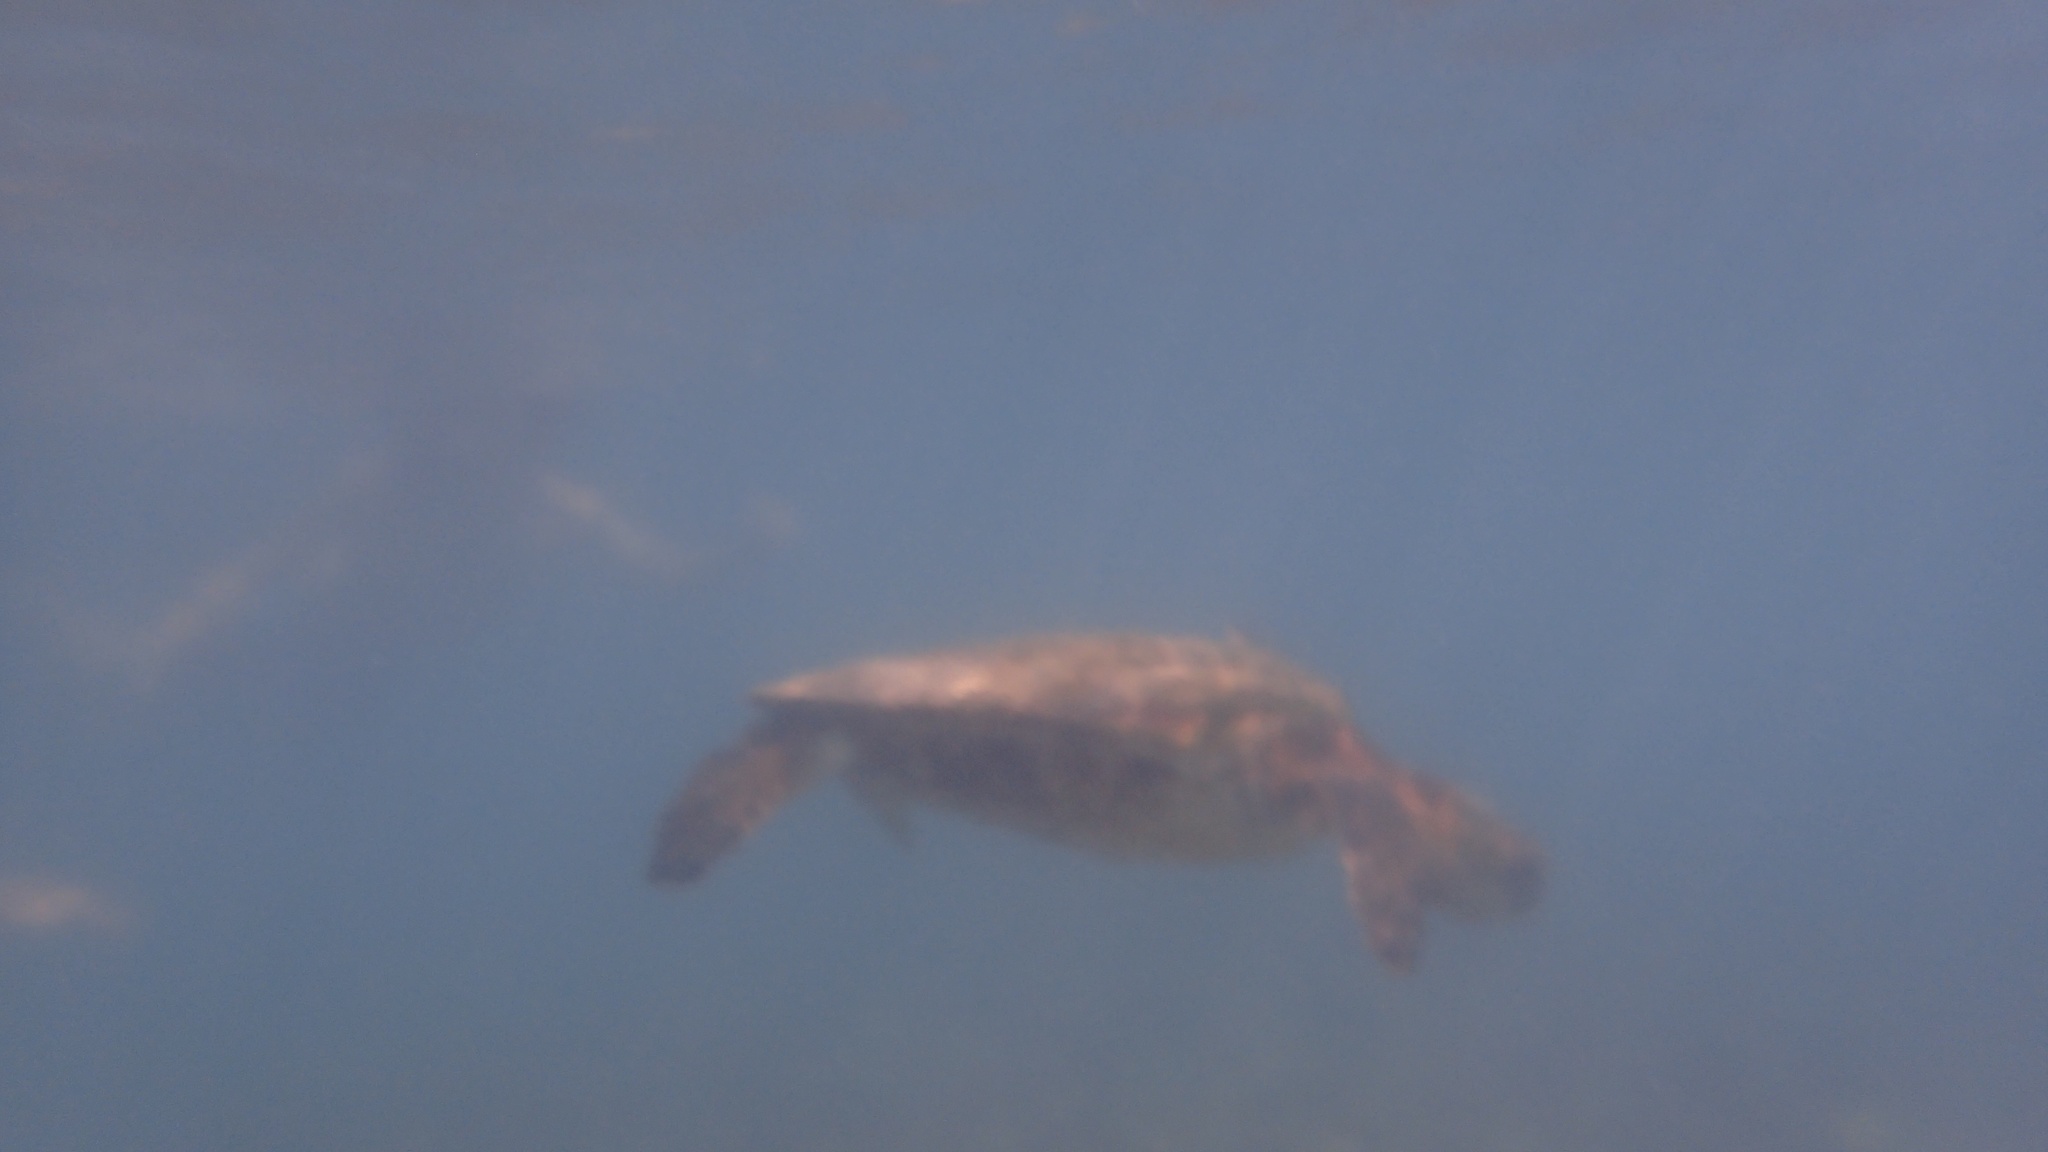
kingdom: Animalia
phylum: Chordata
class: Testudines
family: Cheloniidae
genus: Chelonia
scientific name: Chelonia mydas
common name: Green turtle
